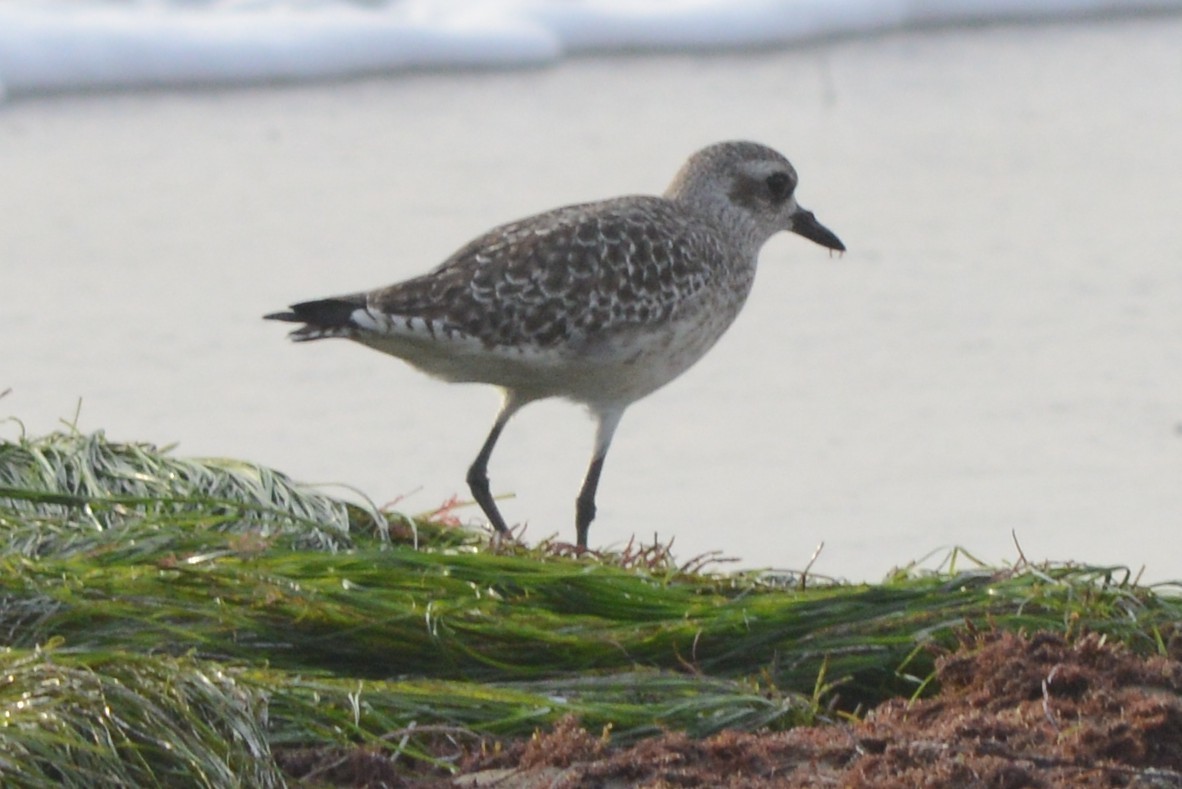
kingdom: Animalia
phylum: Chordata
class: Aves
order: Charadriiformes
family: Charadriidae
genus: Pluvialis
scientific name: Pluvialis squatarola
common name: Grey plover
